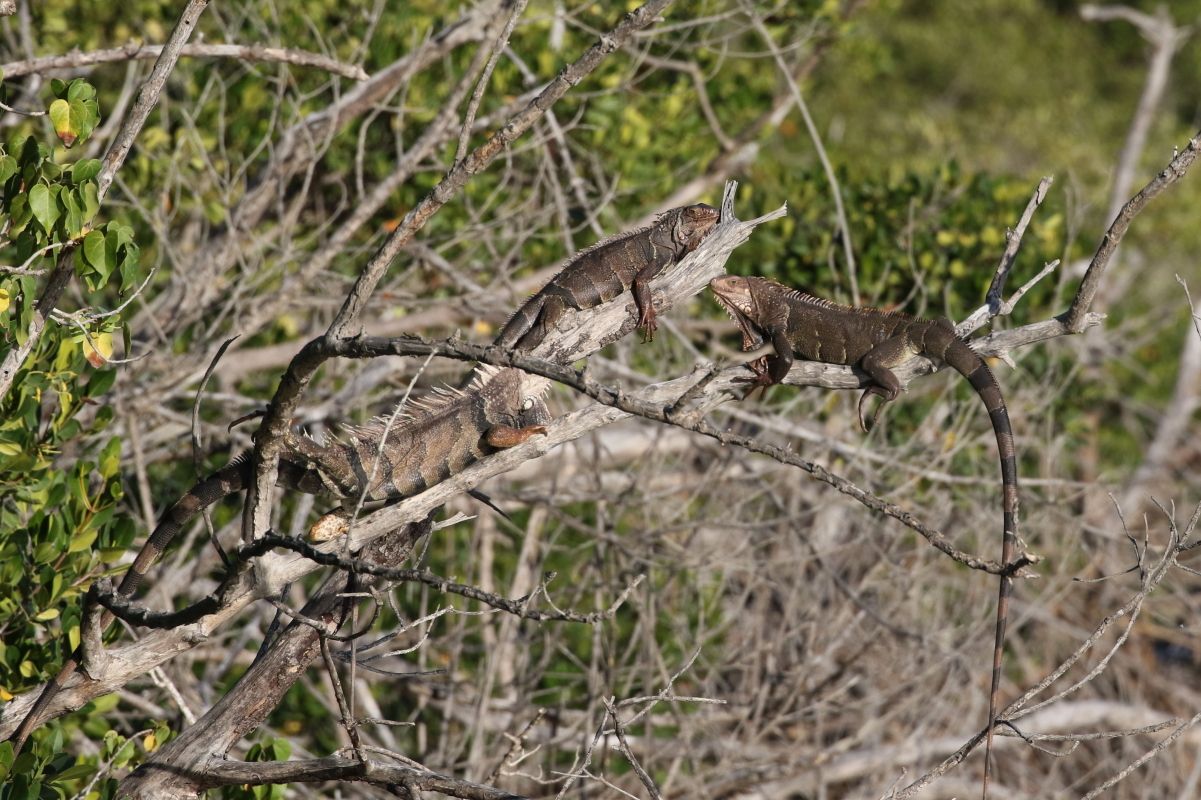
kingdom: Animalia
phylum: Chordata
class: Squamata
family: Iguanidae
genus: Iguana
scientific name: Iguana iguana
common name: Green iguana
